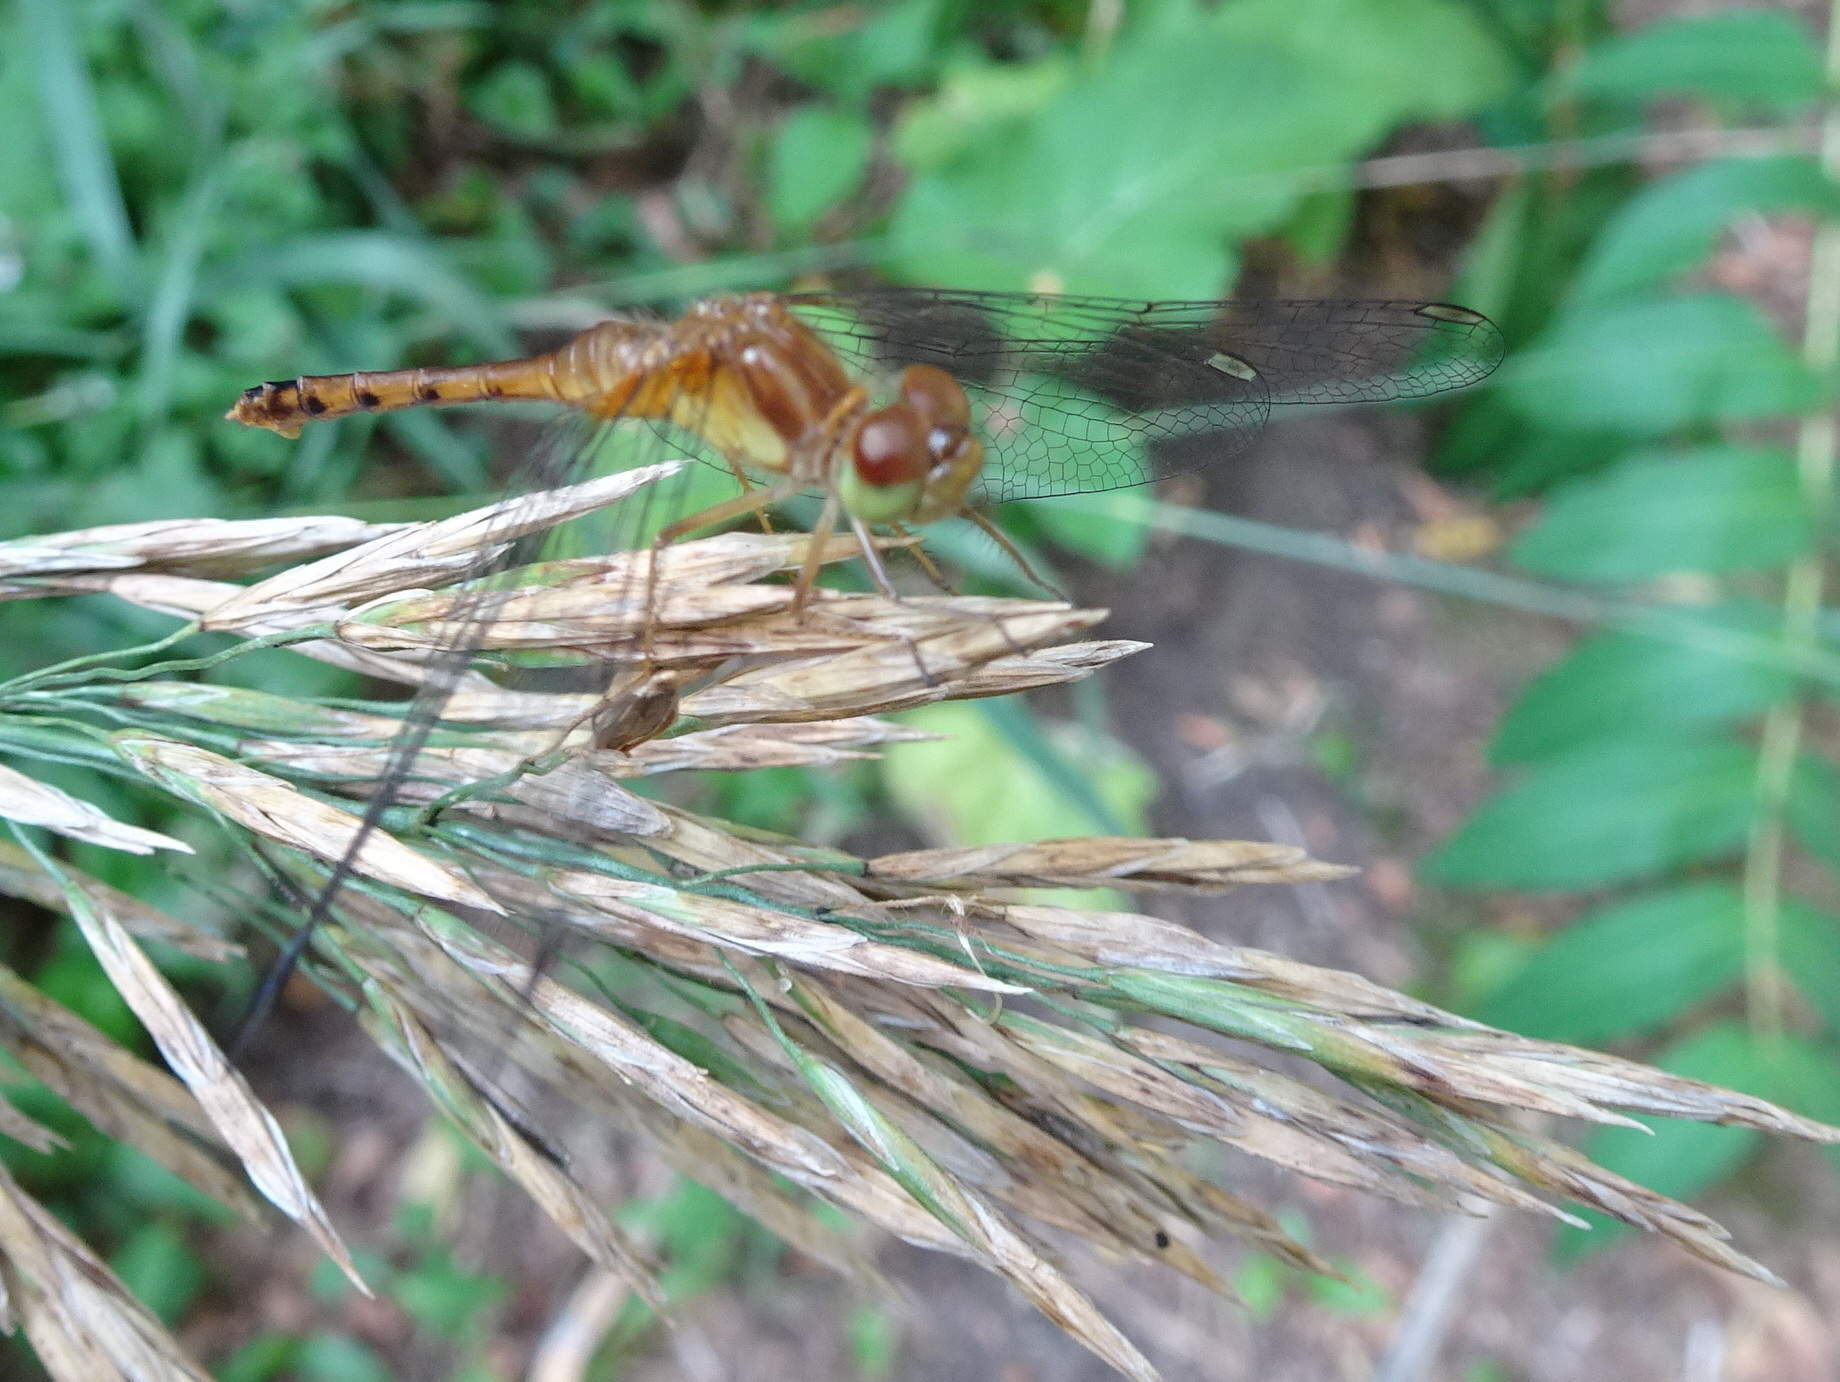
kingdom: Animalia
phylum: Arthropoda
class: Insecta
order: Odonata
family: Libellulidae
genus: Sympetrum
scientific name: Sympetrum vicinum
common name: Autumn meadowhawk
